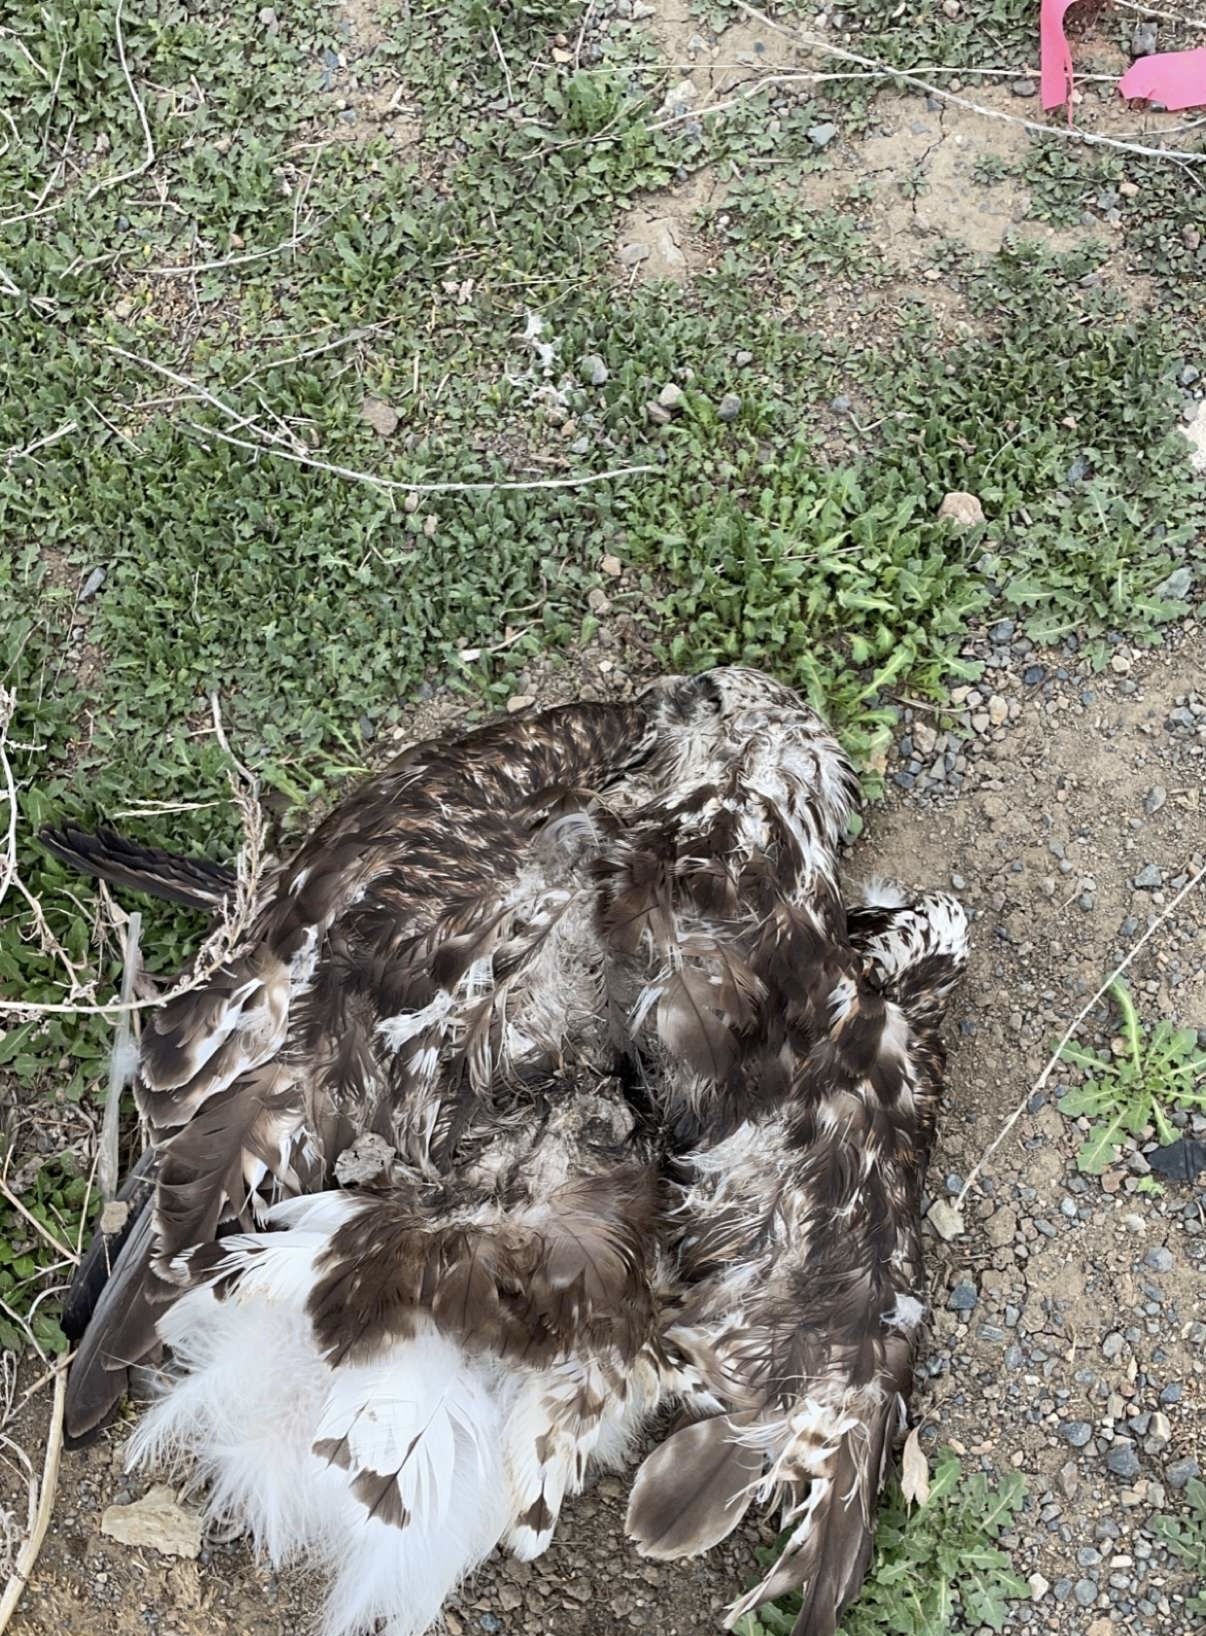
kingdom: Animalia
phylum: Chordata
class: Aves
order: Accipitriformes
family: Accipitridae
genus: Haliaeetus
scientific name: Haliaeetus leucocephalus
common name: Bald eagle
